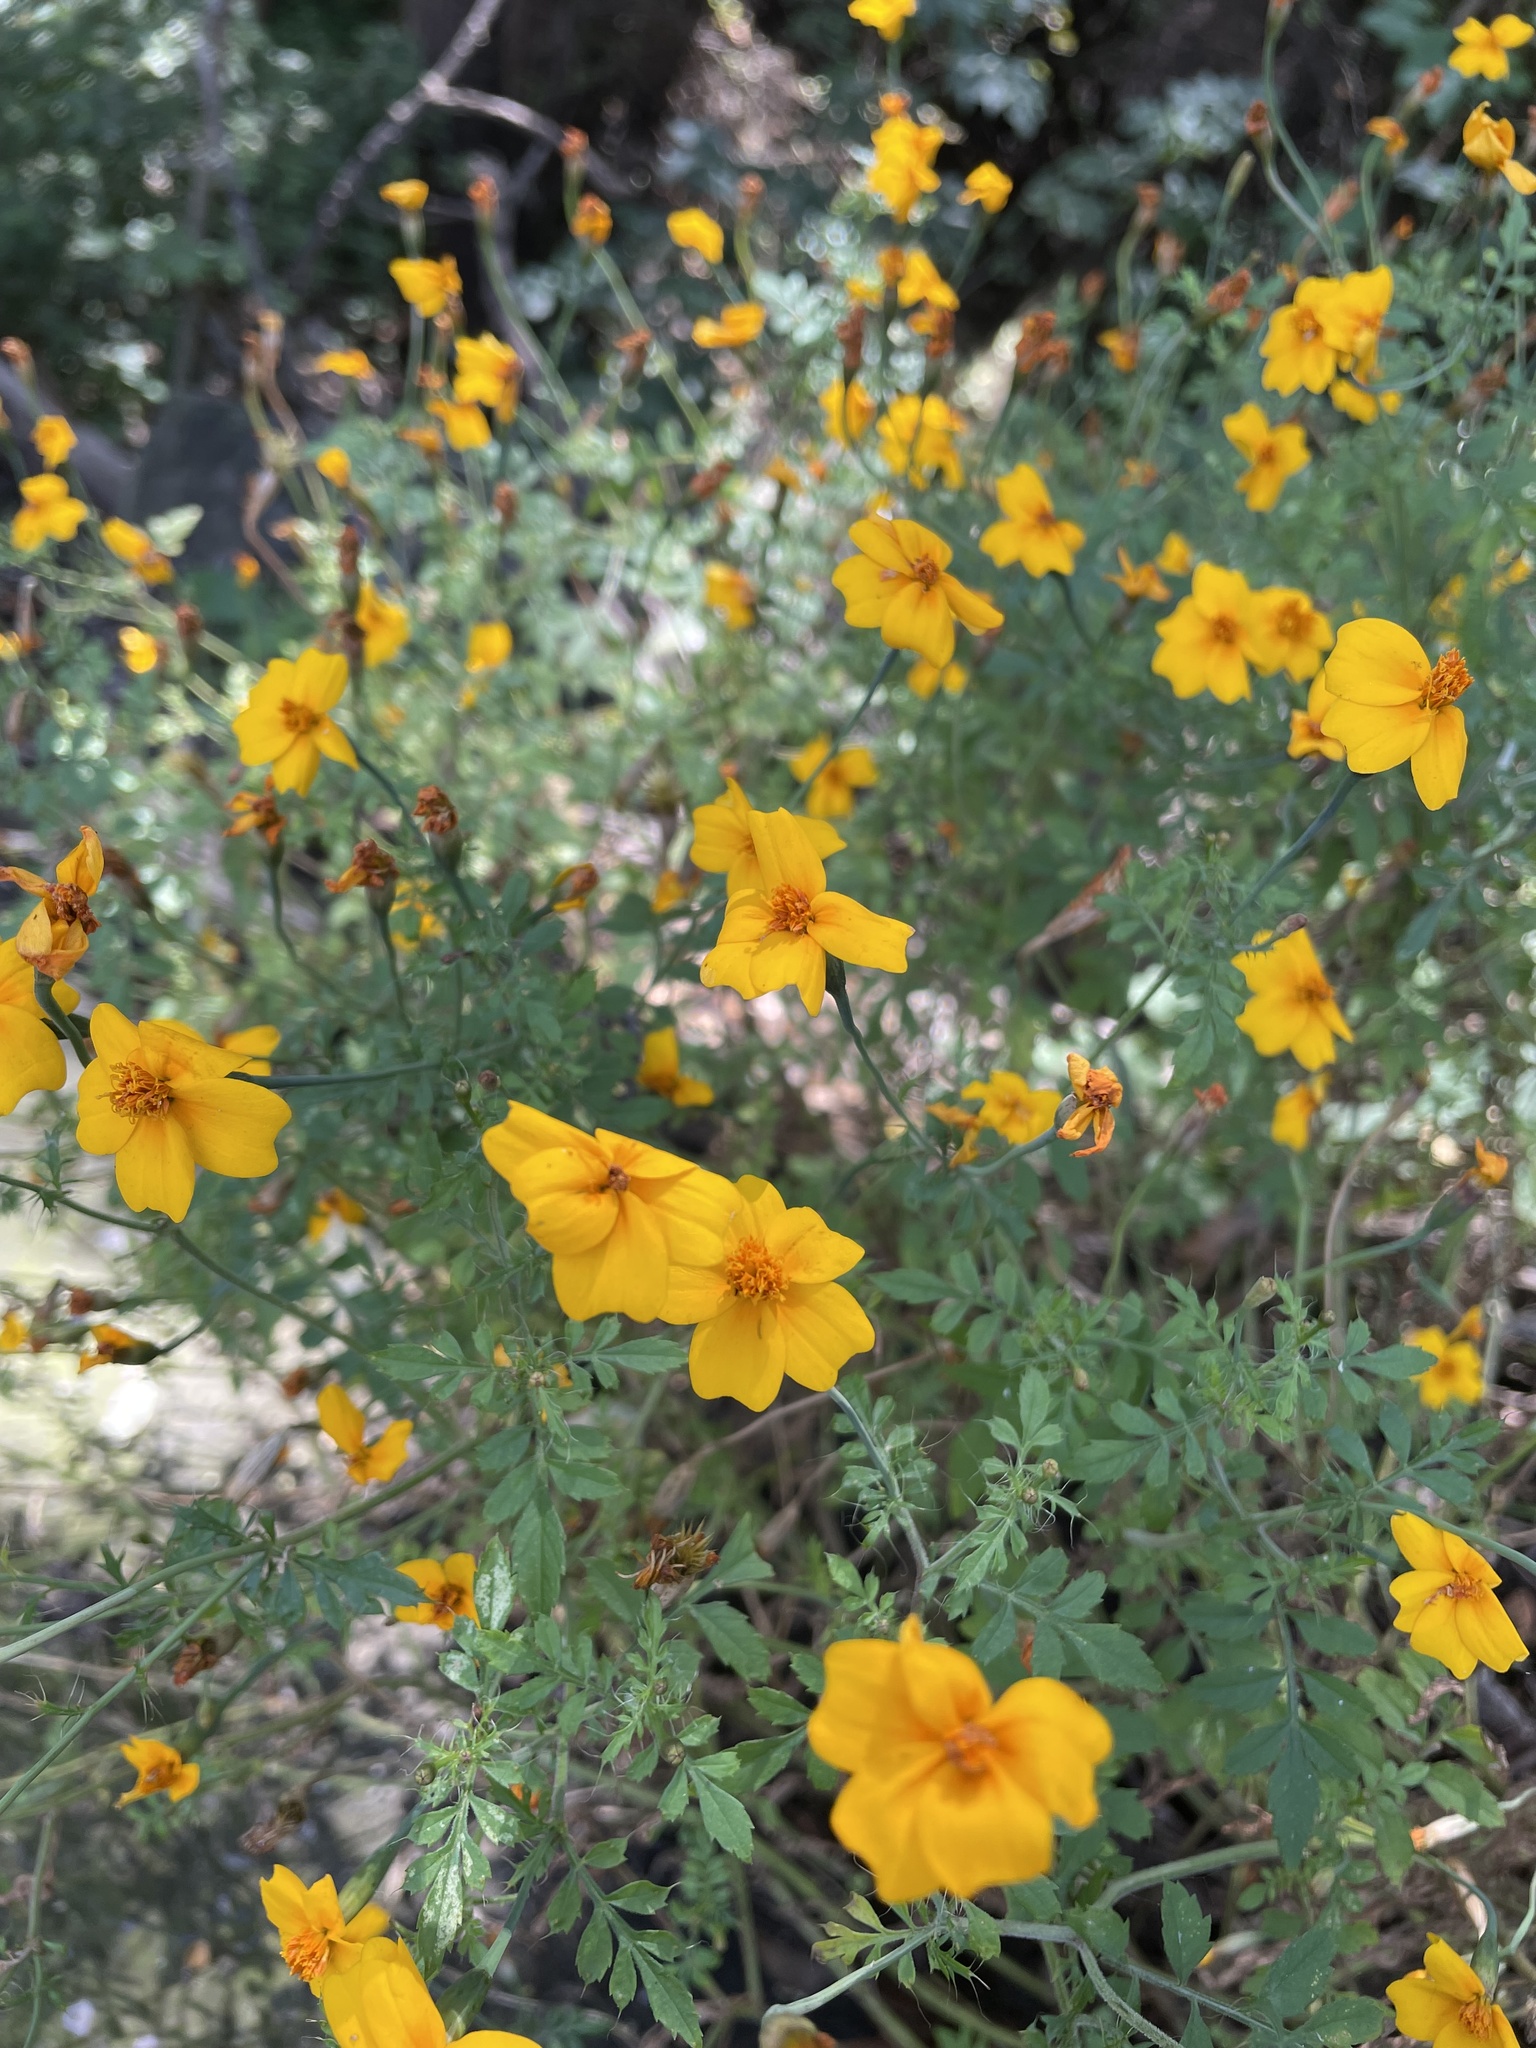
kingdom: Plantae
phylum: Tracheophyta
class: Magnoliopsida
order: Asterales
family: Asteraceae
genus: Tagetes
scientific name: Tagetes tenuifolia
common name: Signet marigold
